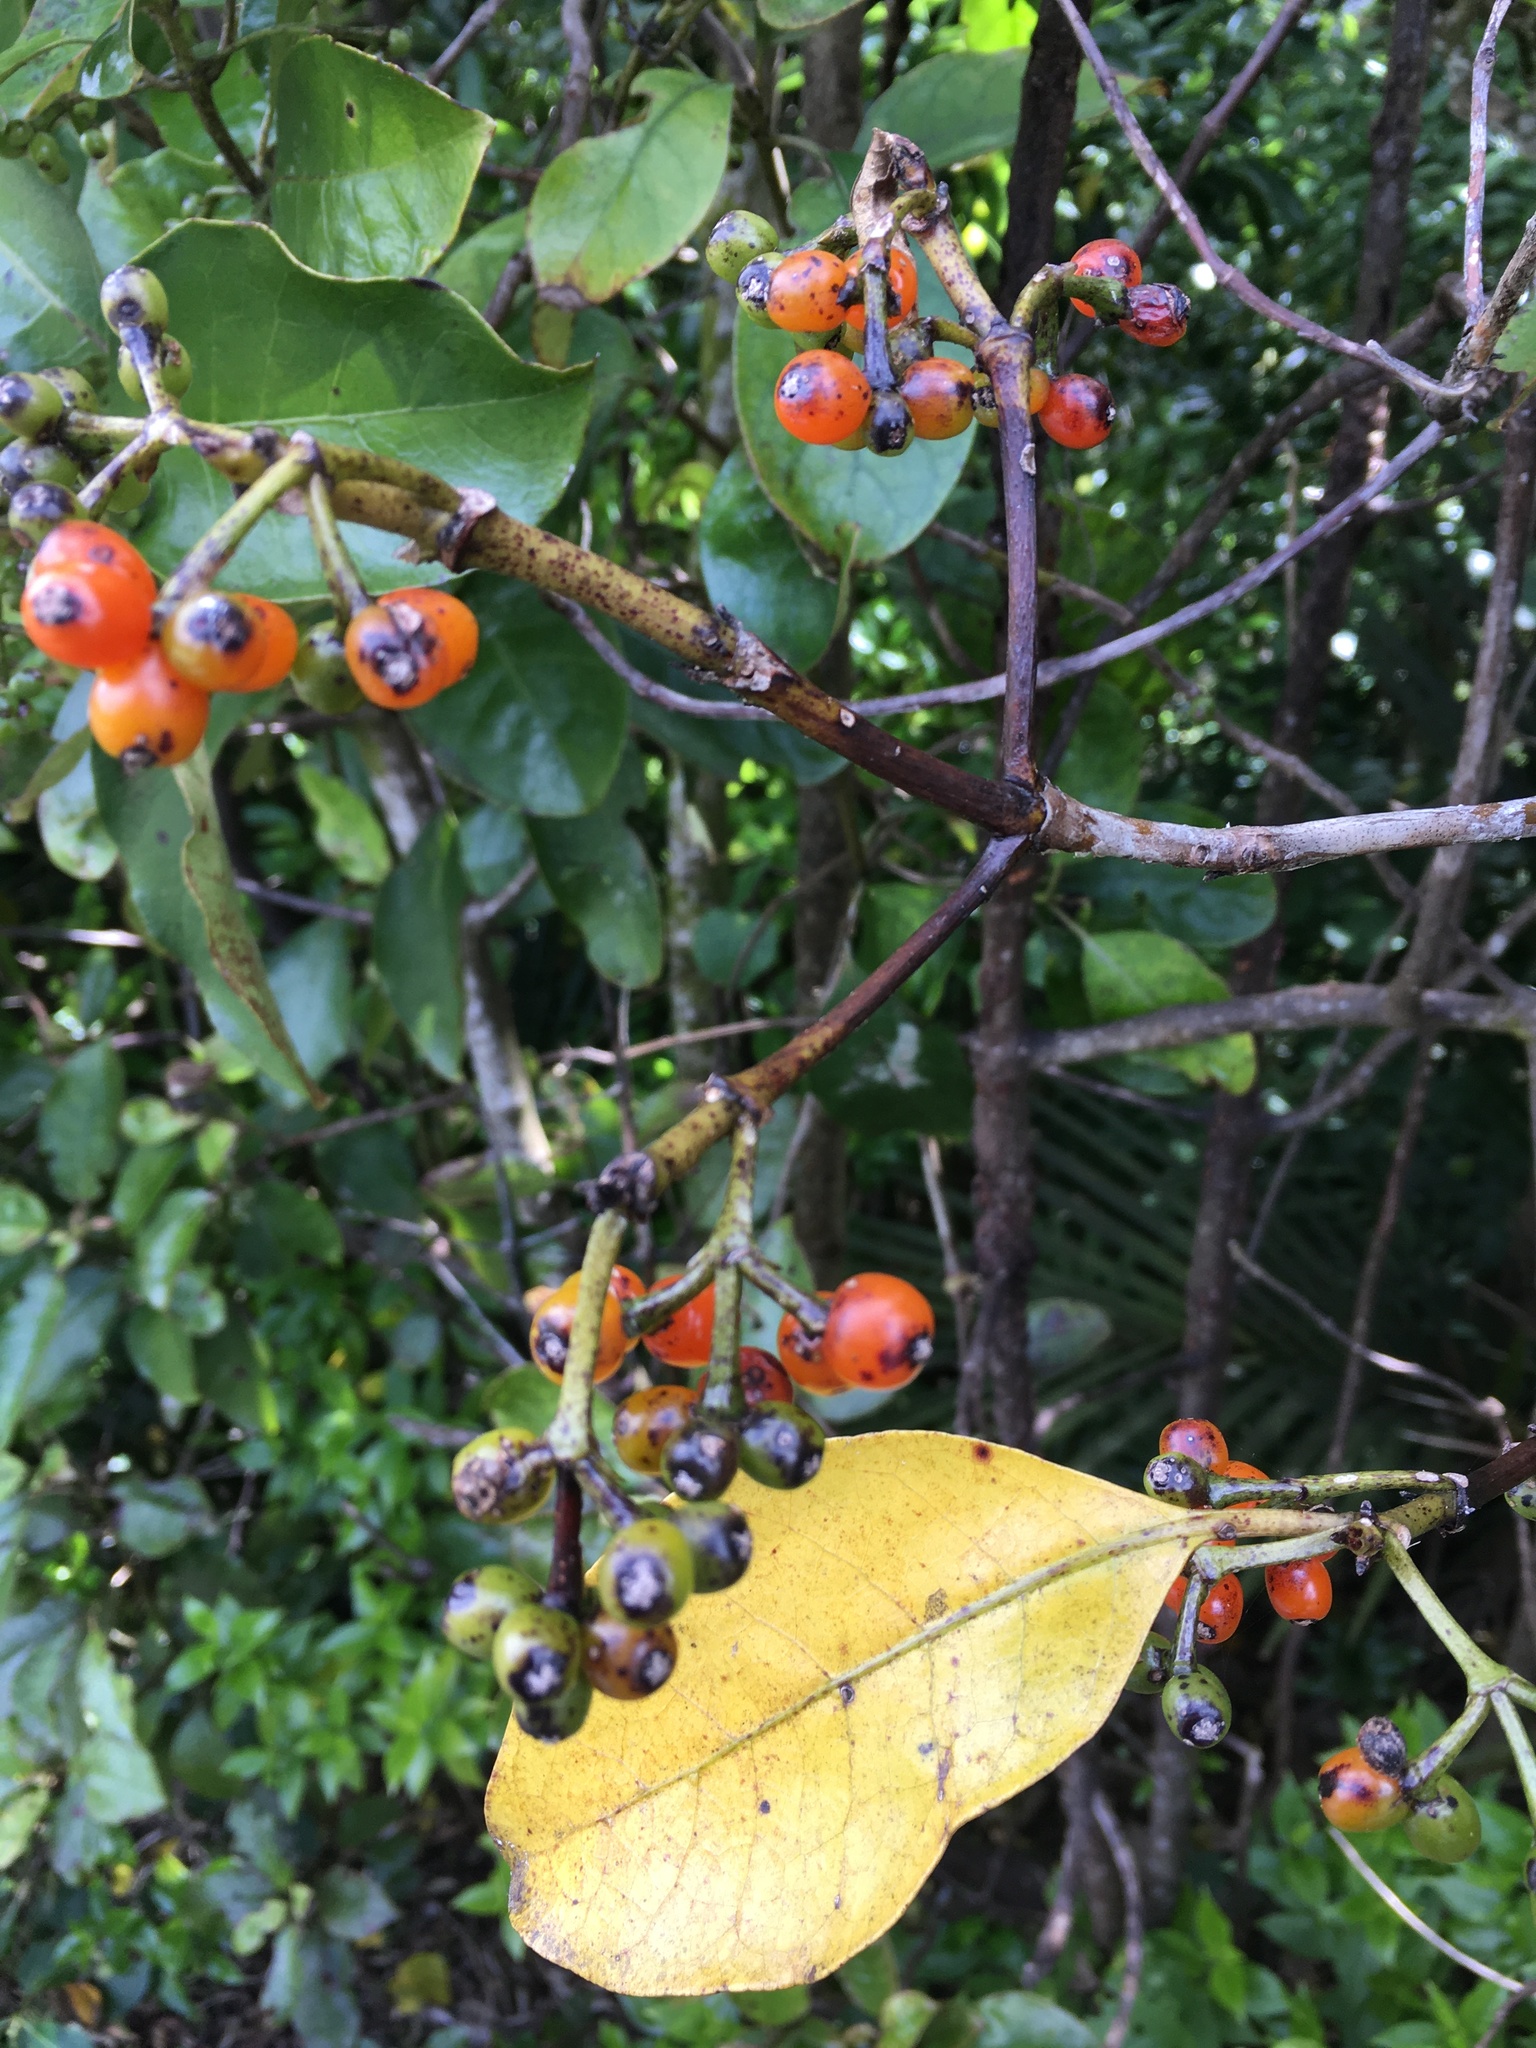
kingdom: Plantae
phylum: Tracheophyta
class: Magnoliopsida
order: Gentianales
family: Rubiaceae
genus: Coprosma
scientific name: Coprosma lucida
